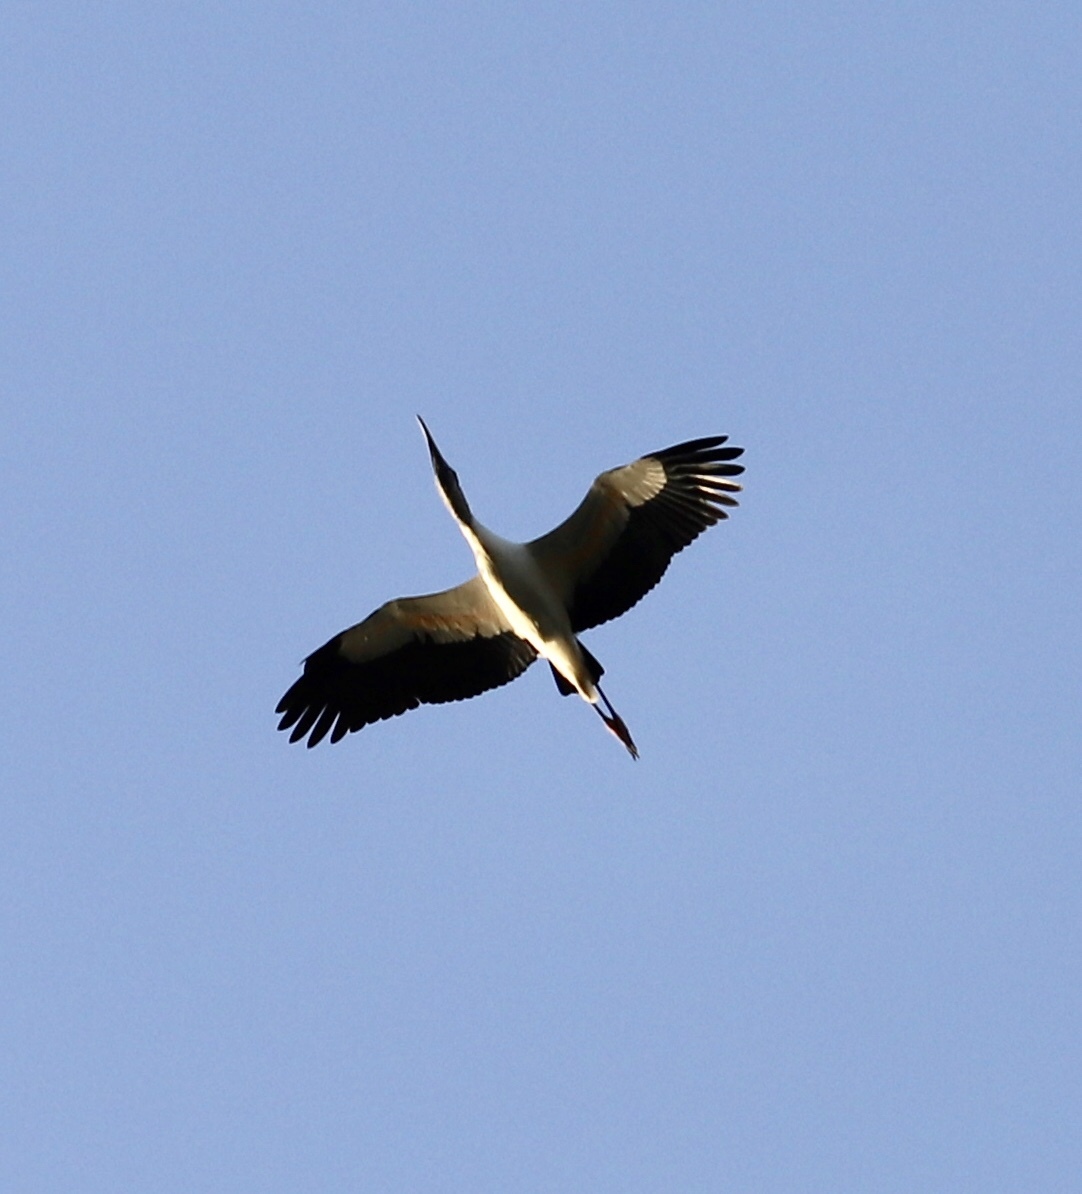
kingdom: Animalia
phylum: Chordata
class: Aves
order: Ciconiiformes
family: Ciconiidae
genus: Mycteria
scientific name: Mycteria americana
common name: Wood stork
